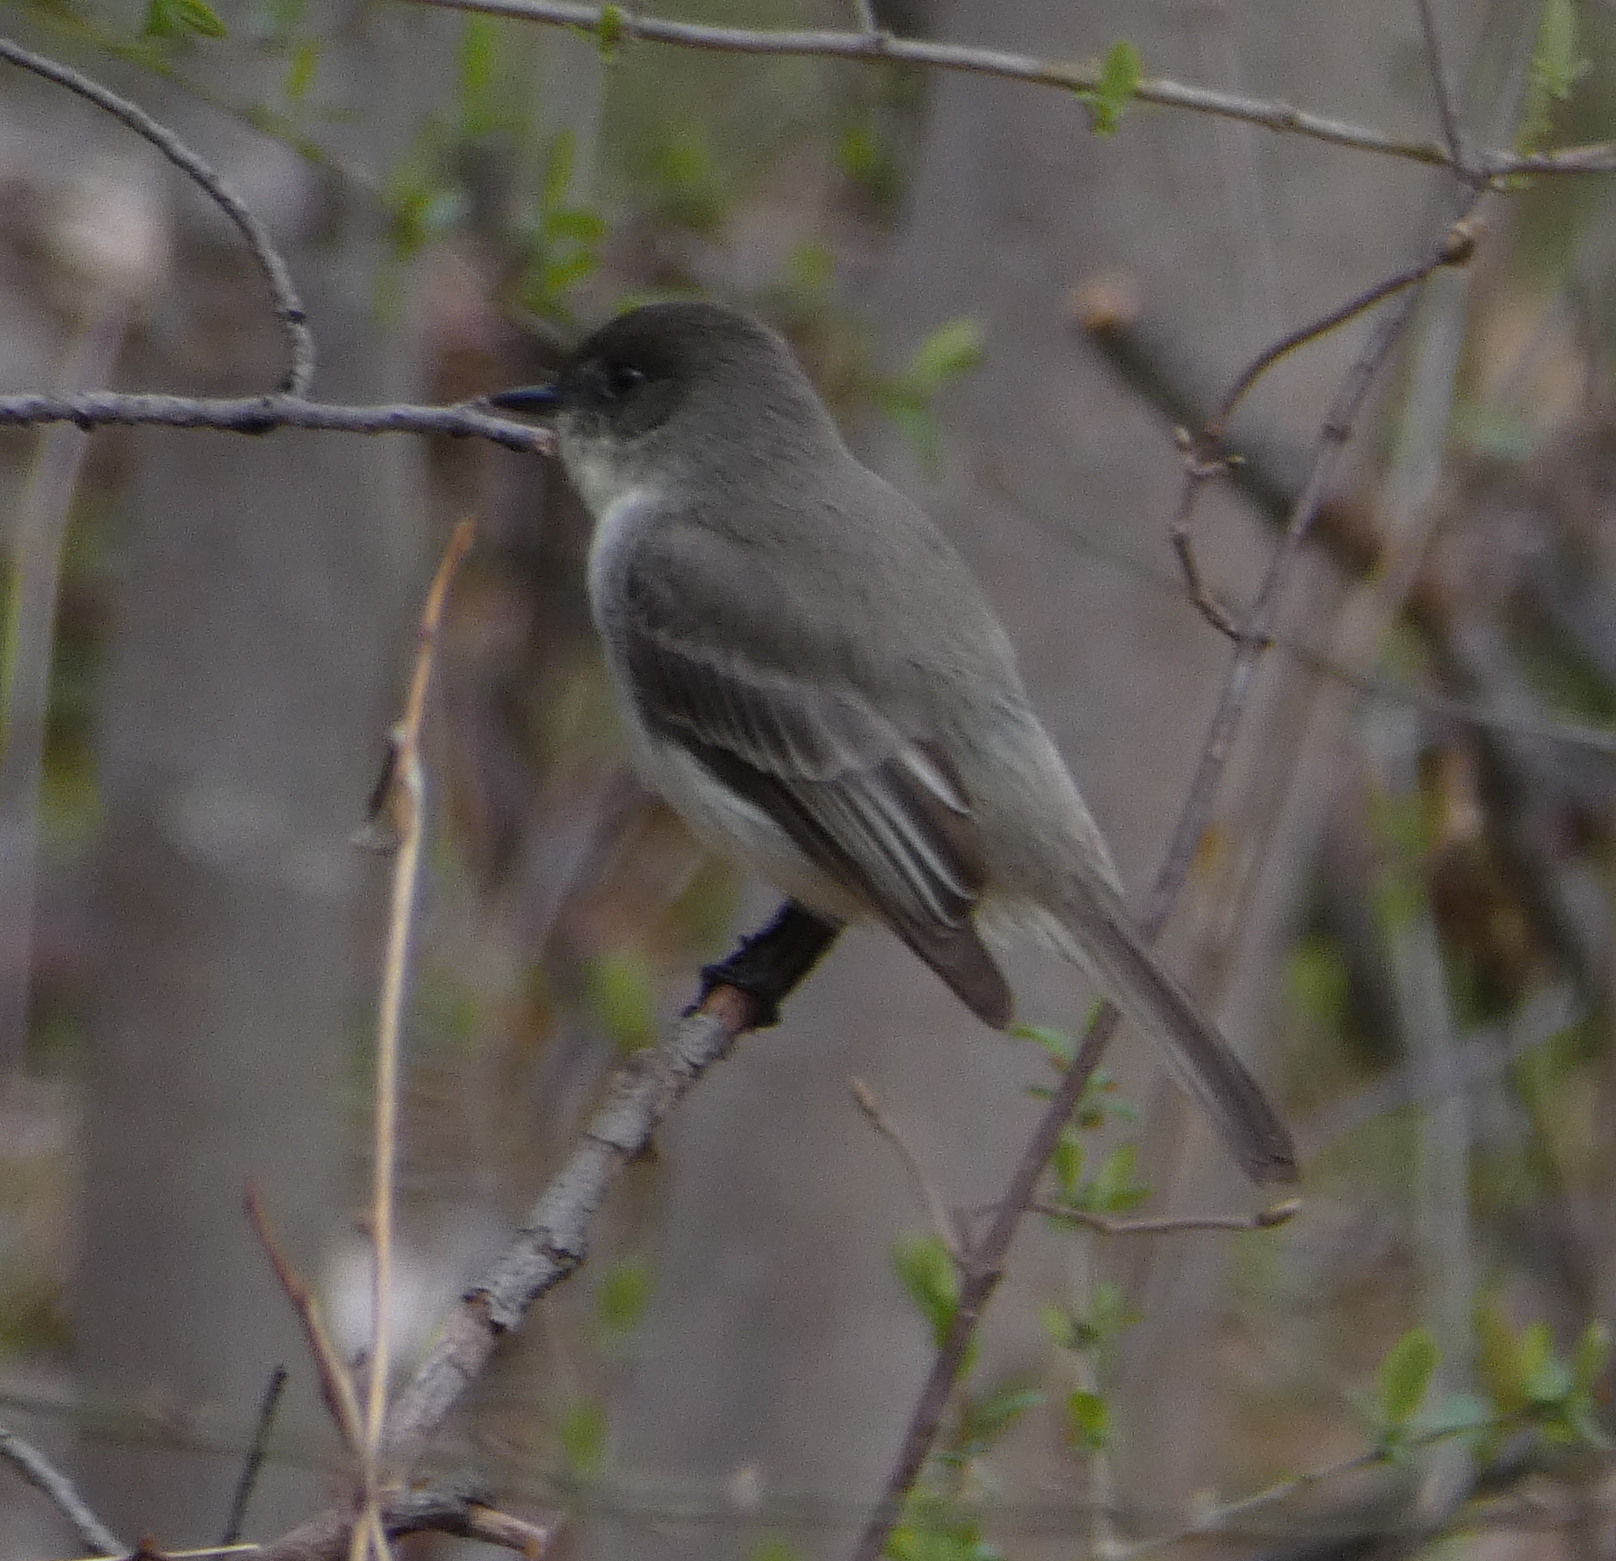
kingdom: Animalia
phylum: Chordata
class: Aves
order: Passeriformes
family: Tyrannidae
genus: Sayornis
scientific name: Sayornis phoebe
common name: Eastern phoebe
